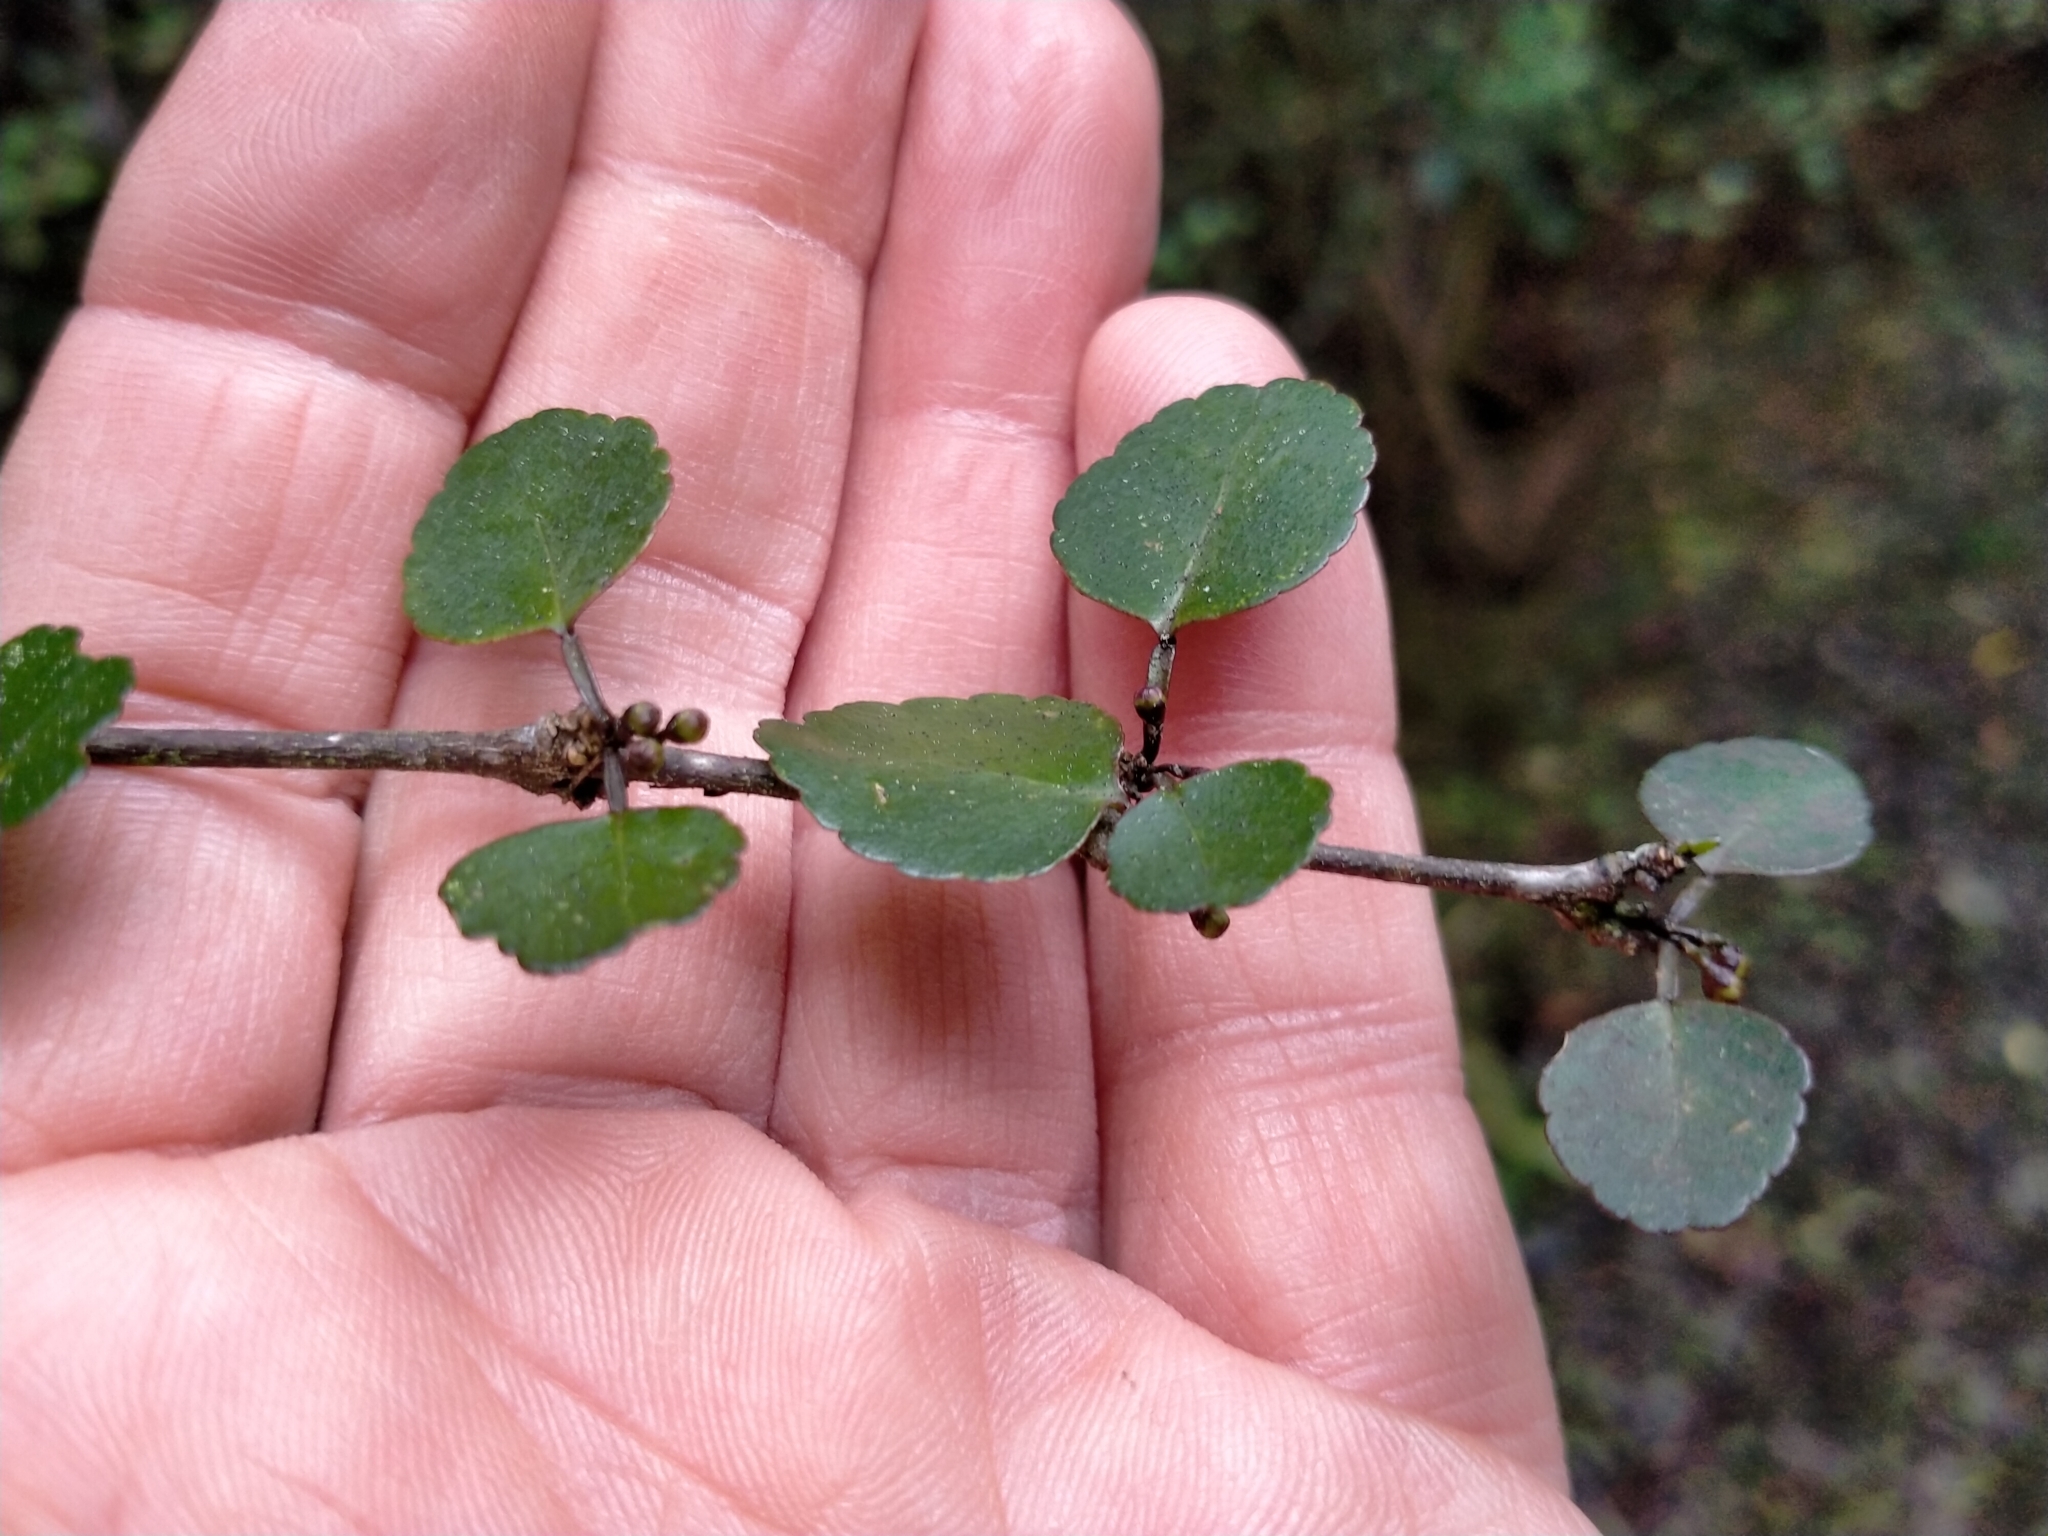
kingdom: Plantae
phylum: Tracheophyta
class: Magnoliopsida
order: Sapindales
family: Rutaceae
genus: Melicope
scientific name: Melicope simplex
